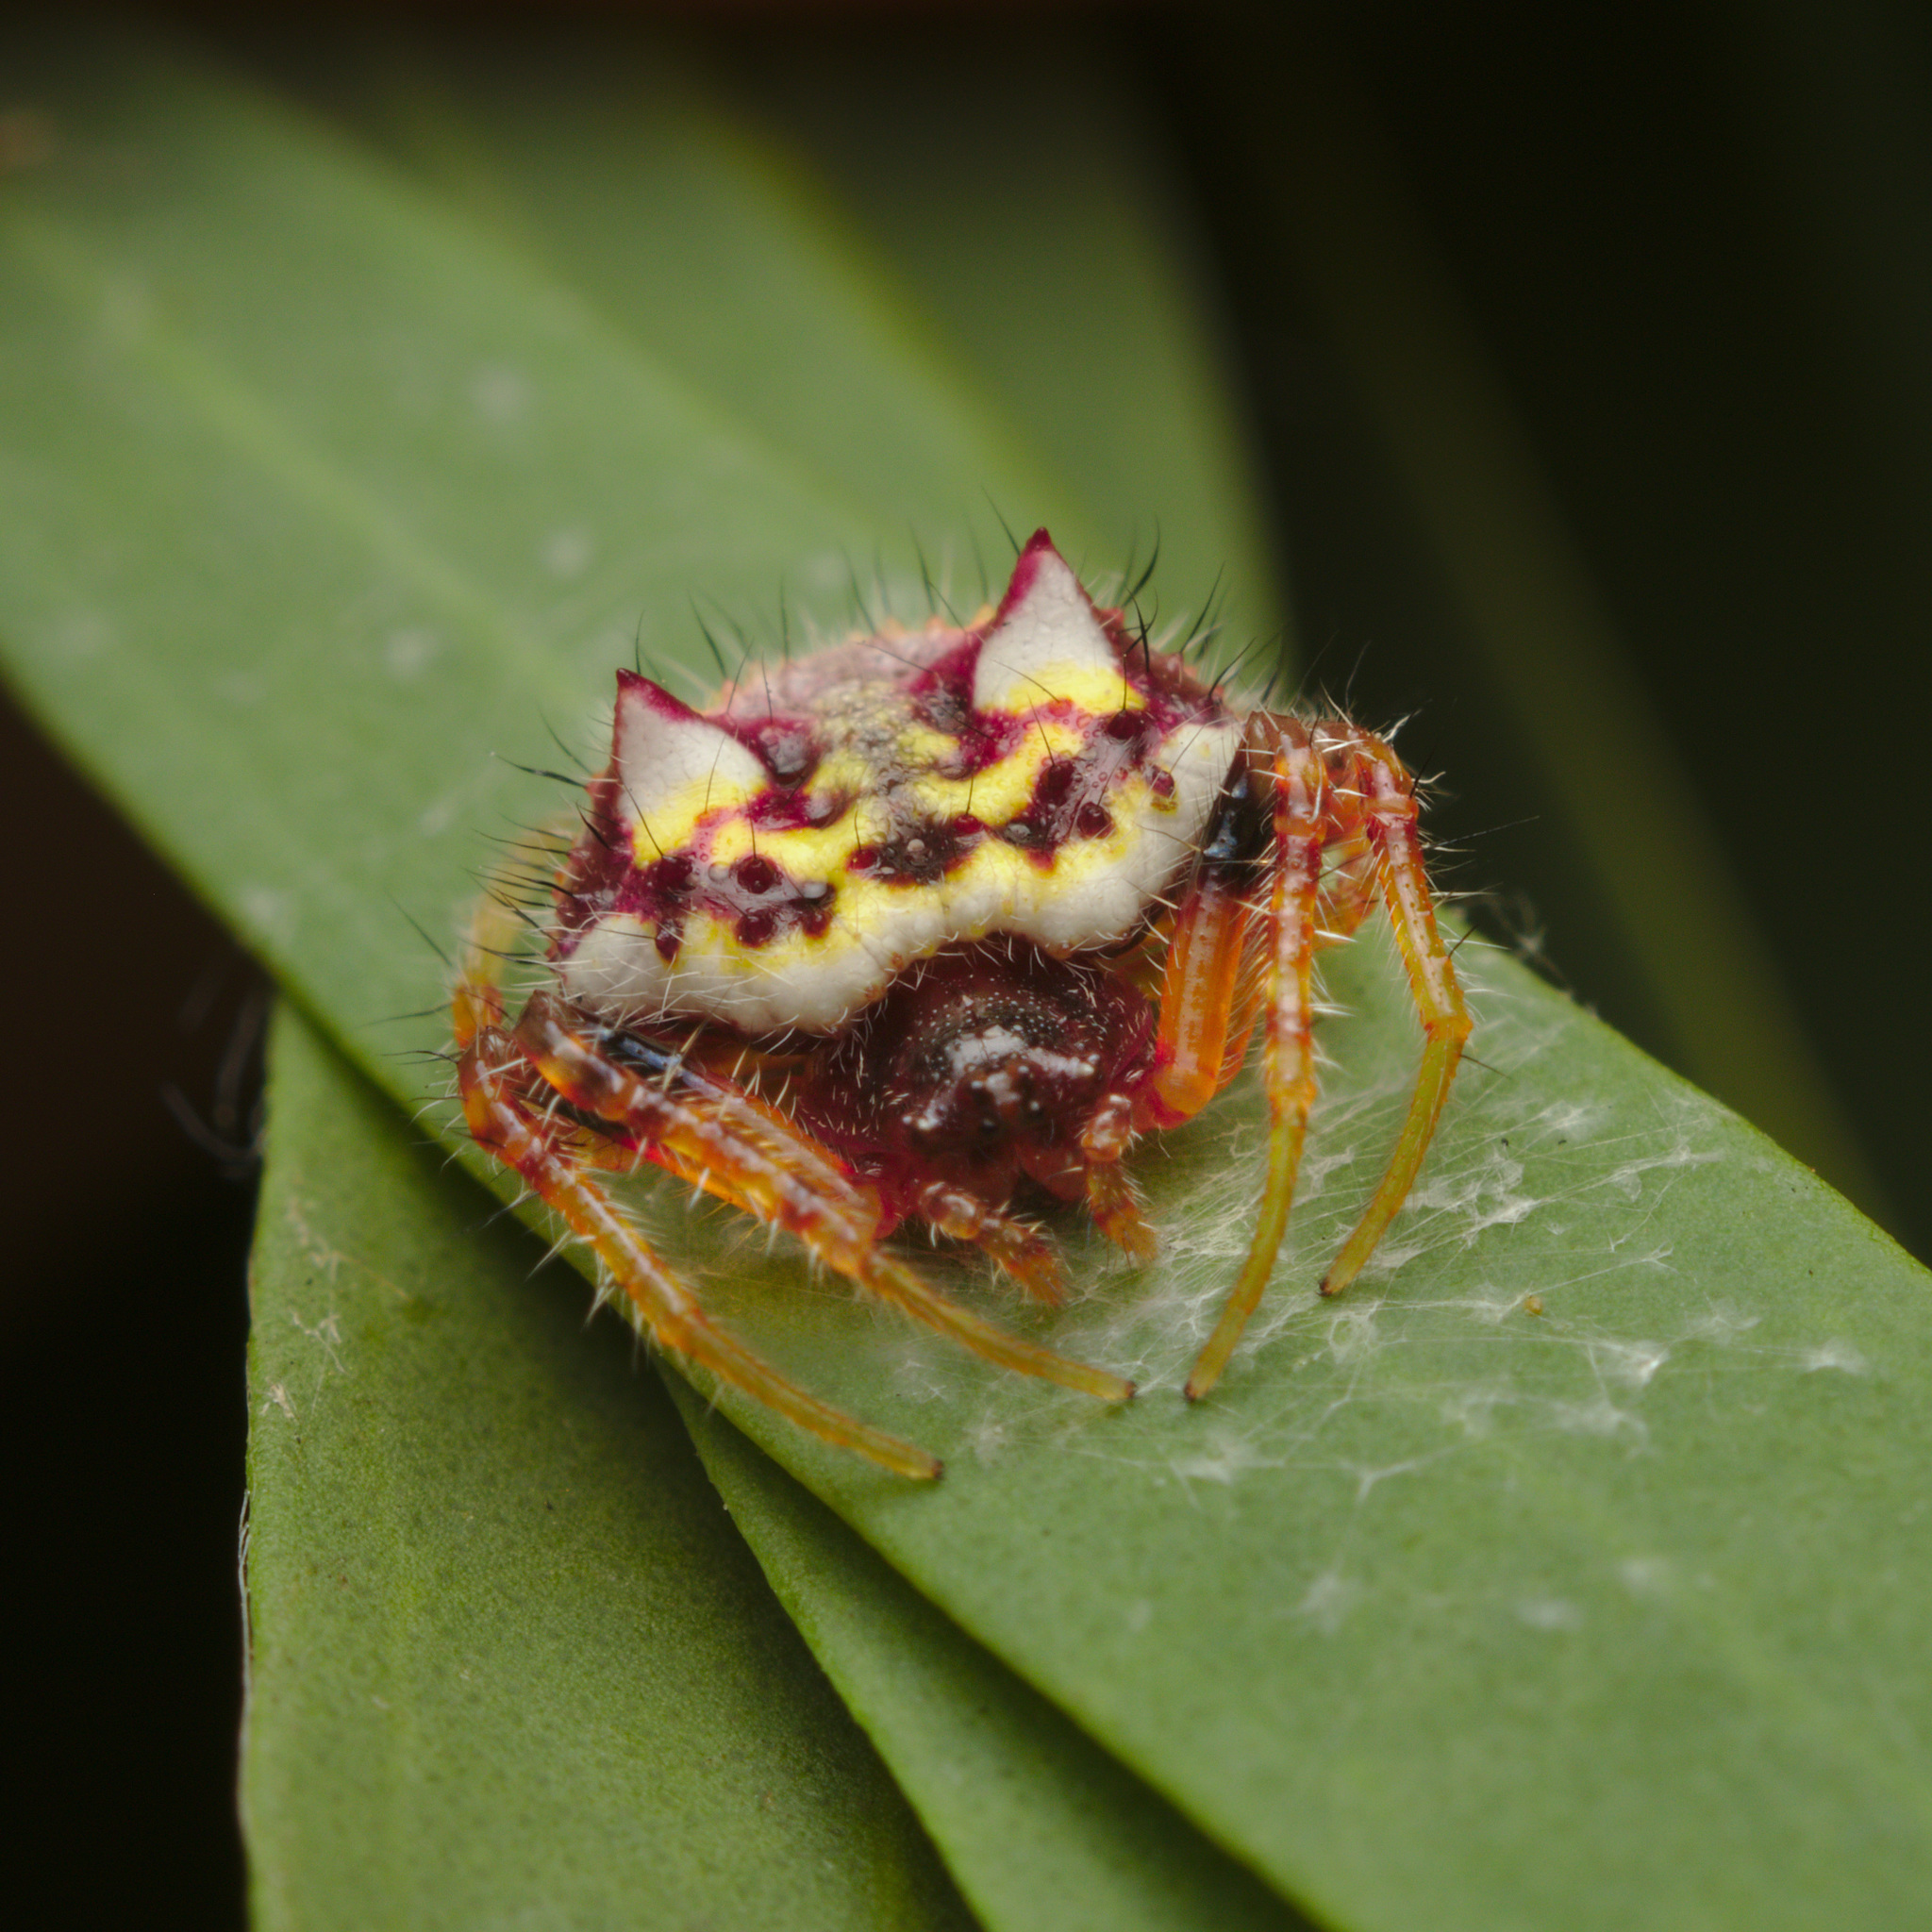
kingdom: Animalia
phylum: Arthropoda
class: Arachnida
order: Araneae
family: Araneidae
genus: Poecilopachys
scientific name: Poecilopachys australasia
